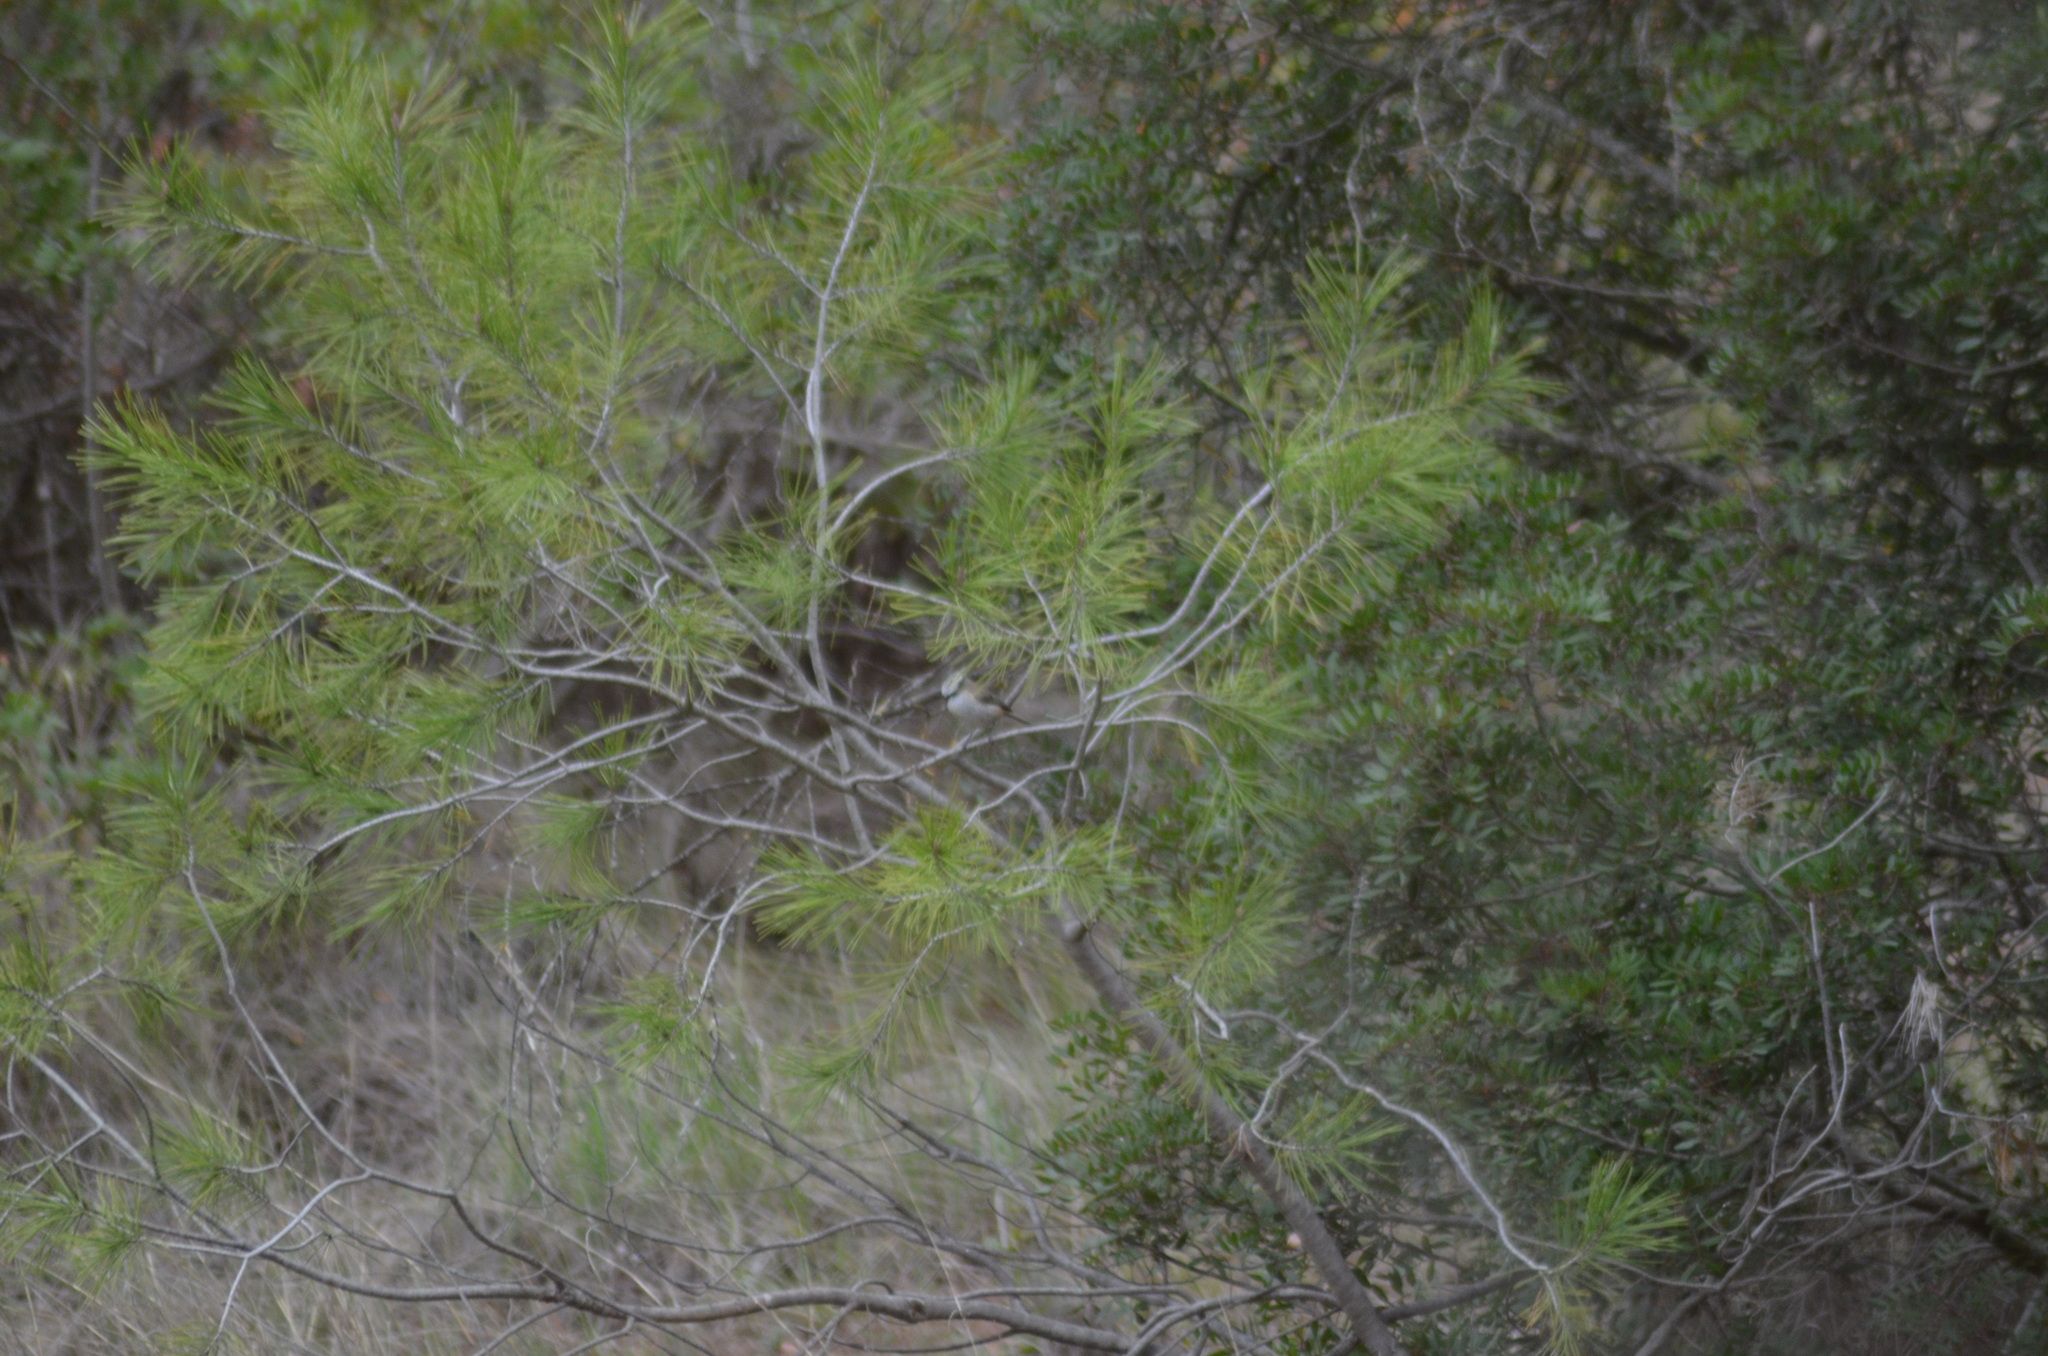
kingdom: Animalia
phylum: Chordata
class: Aves
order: Passeriformes
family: Paridae
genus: Lophophanes
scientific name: Lophophanes cristatus
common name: European crested tit
